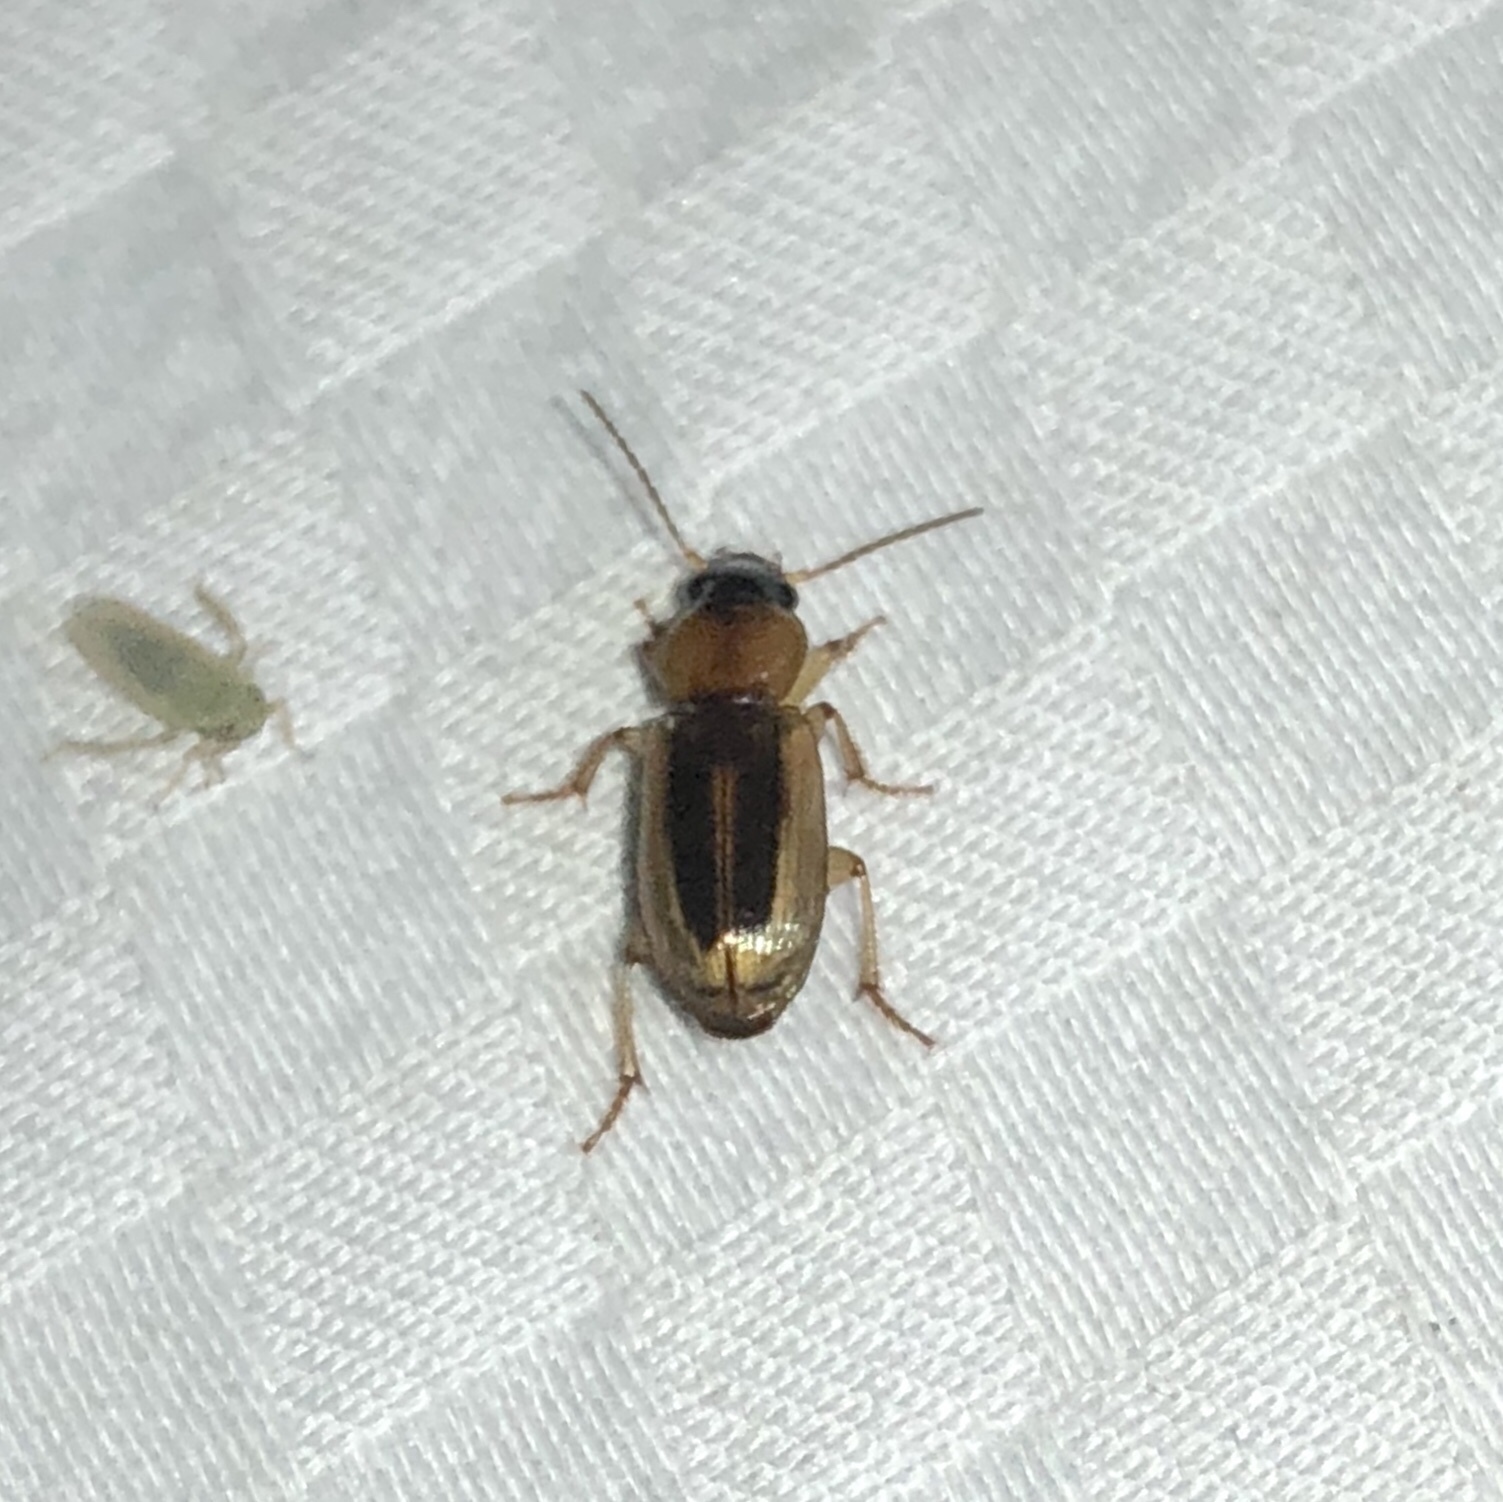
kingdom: Animalia
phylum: Arthropoda
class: Insecta
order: Coleoptera
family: Carabidae
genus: Stenolophus
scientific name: Stenolophus lecontei
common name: Leconte's seedcorn beetle
